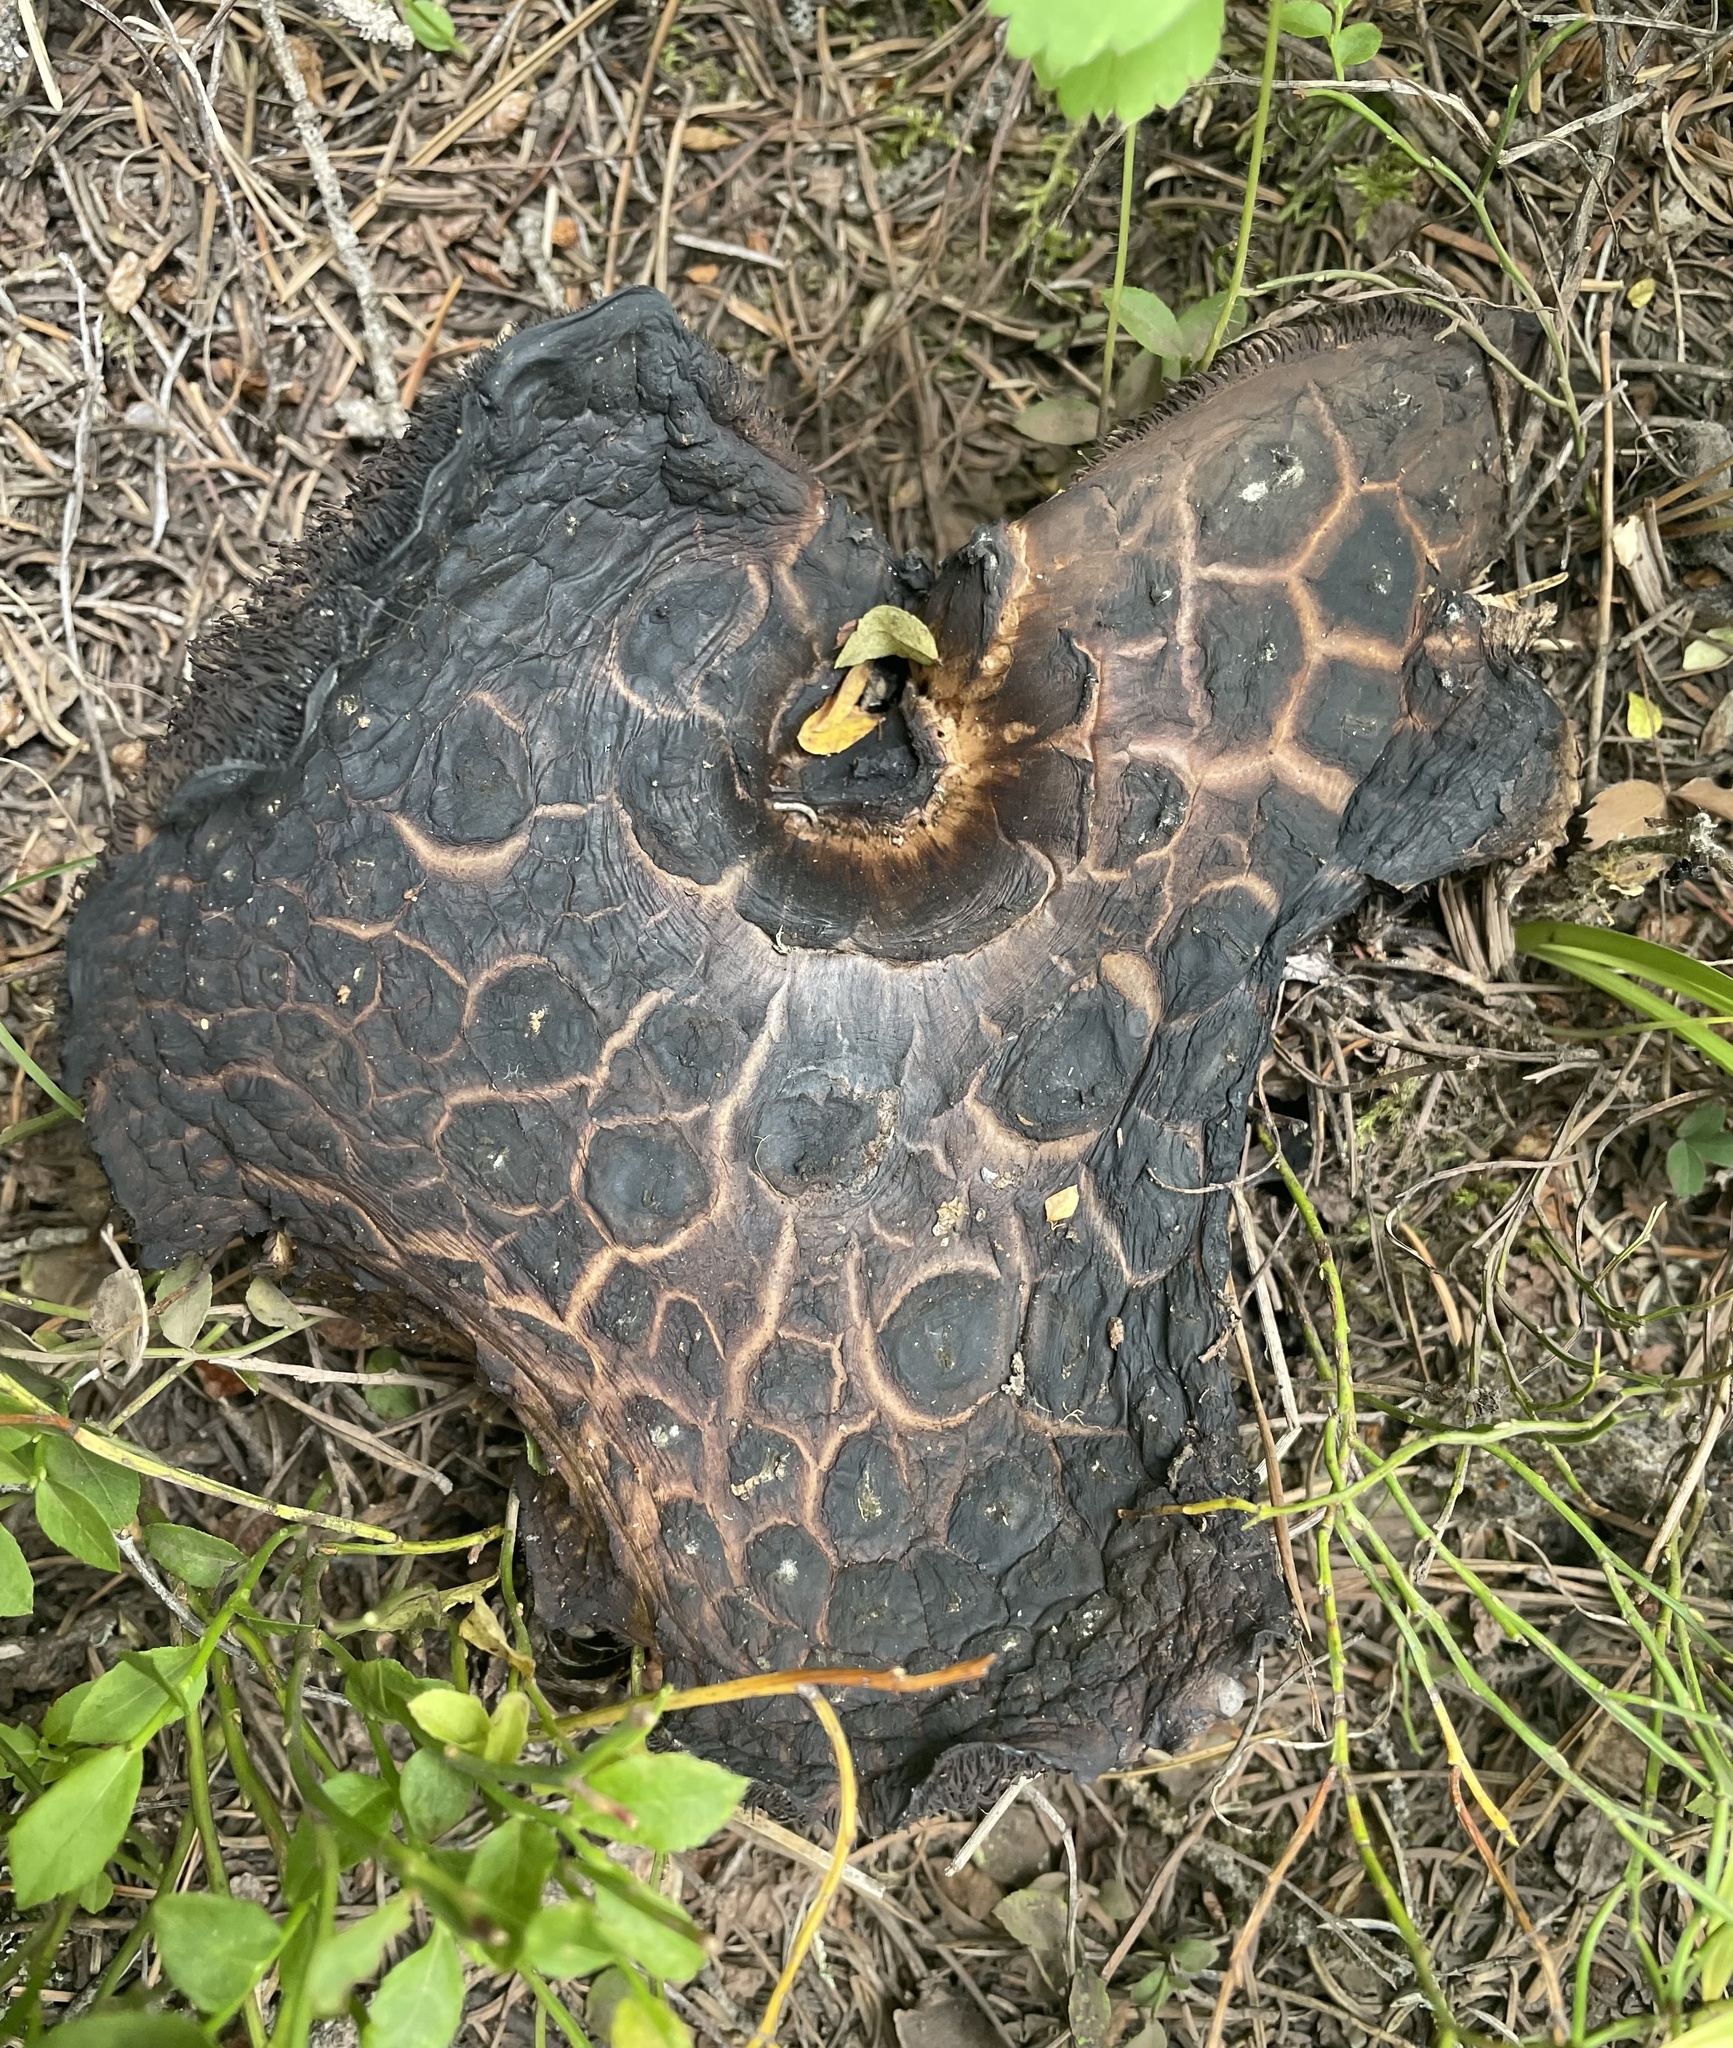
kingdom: Fungi
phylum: Basidiomycota
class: Agaricomycetes
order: Thelephorales
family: Bankeraceae
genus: Sarcodon
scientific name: Sarcodon imbricatus
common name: Shingled hedgehog
